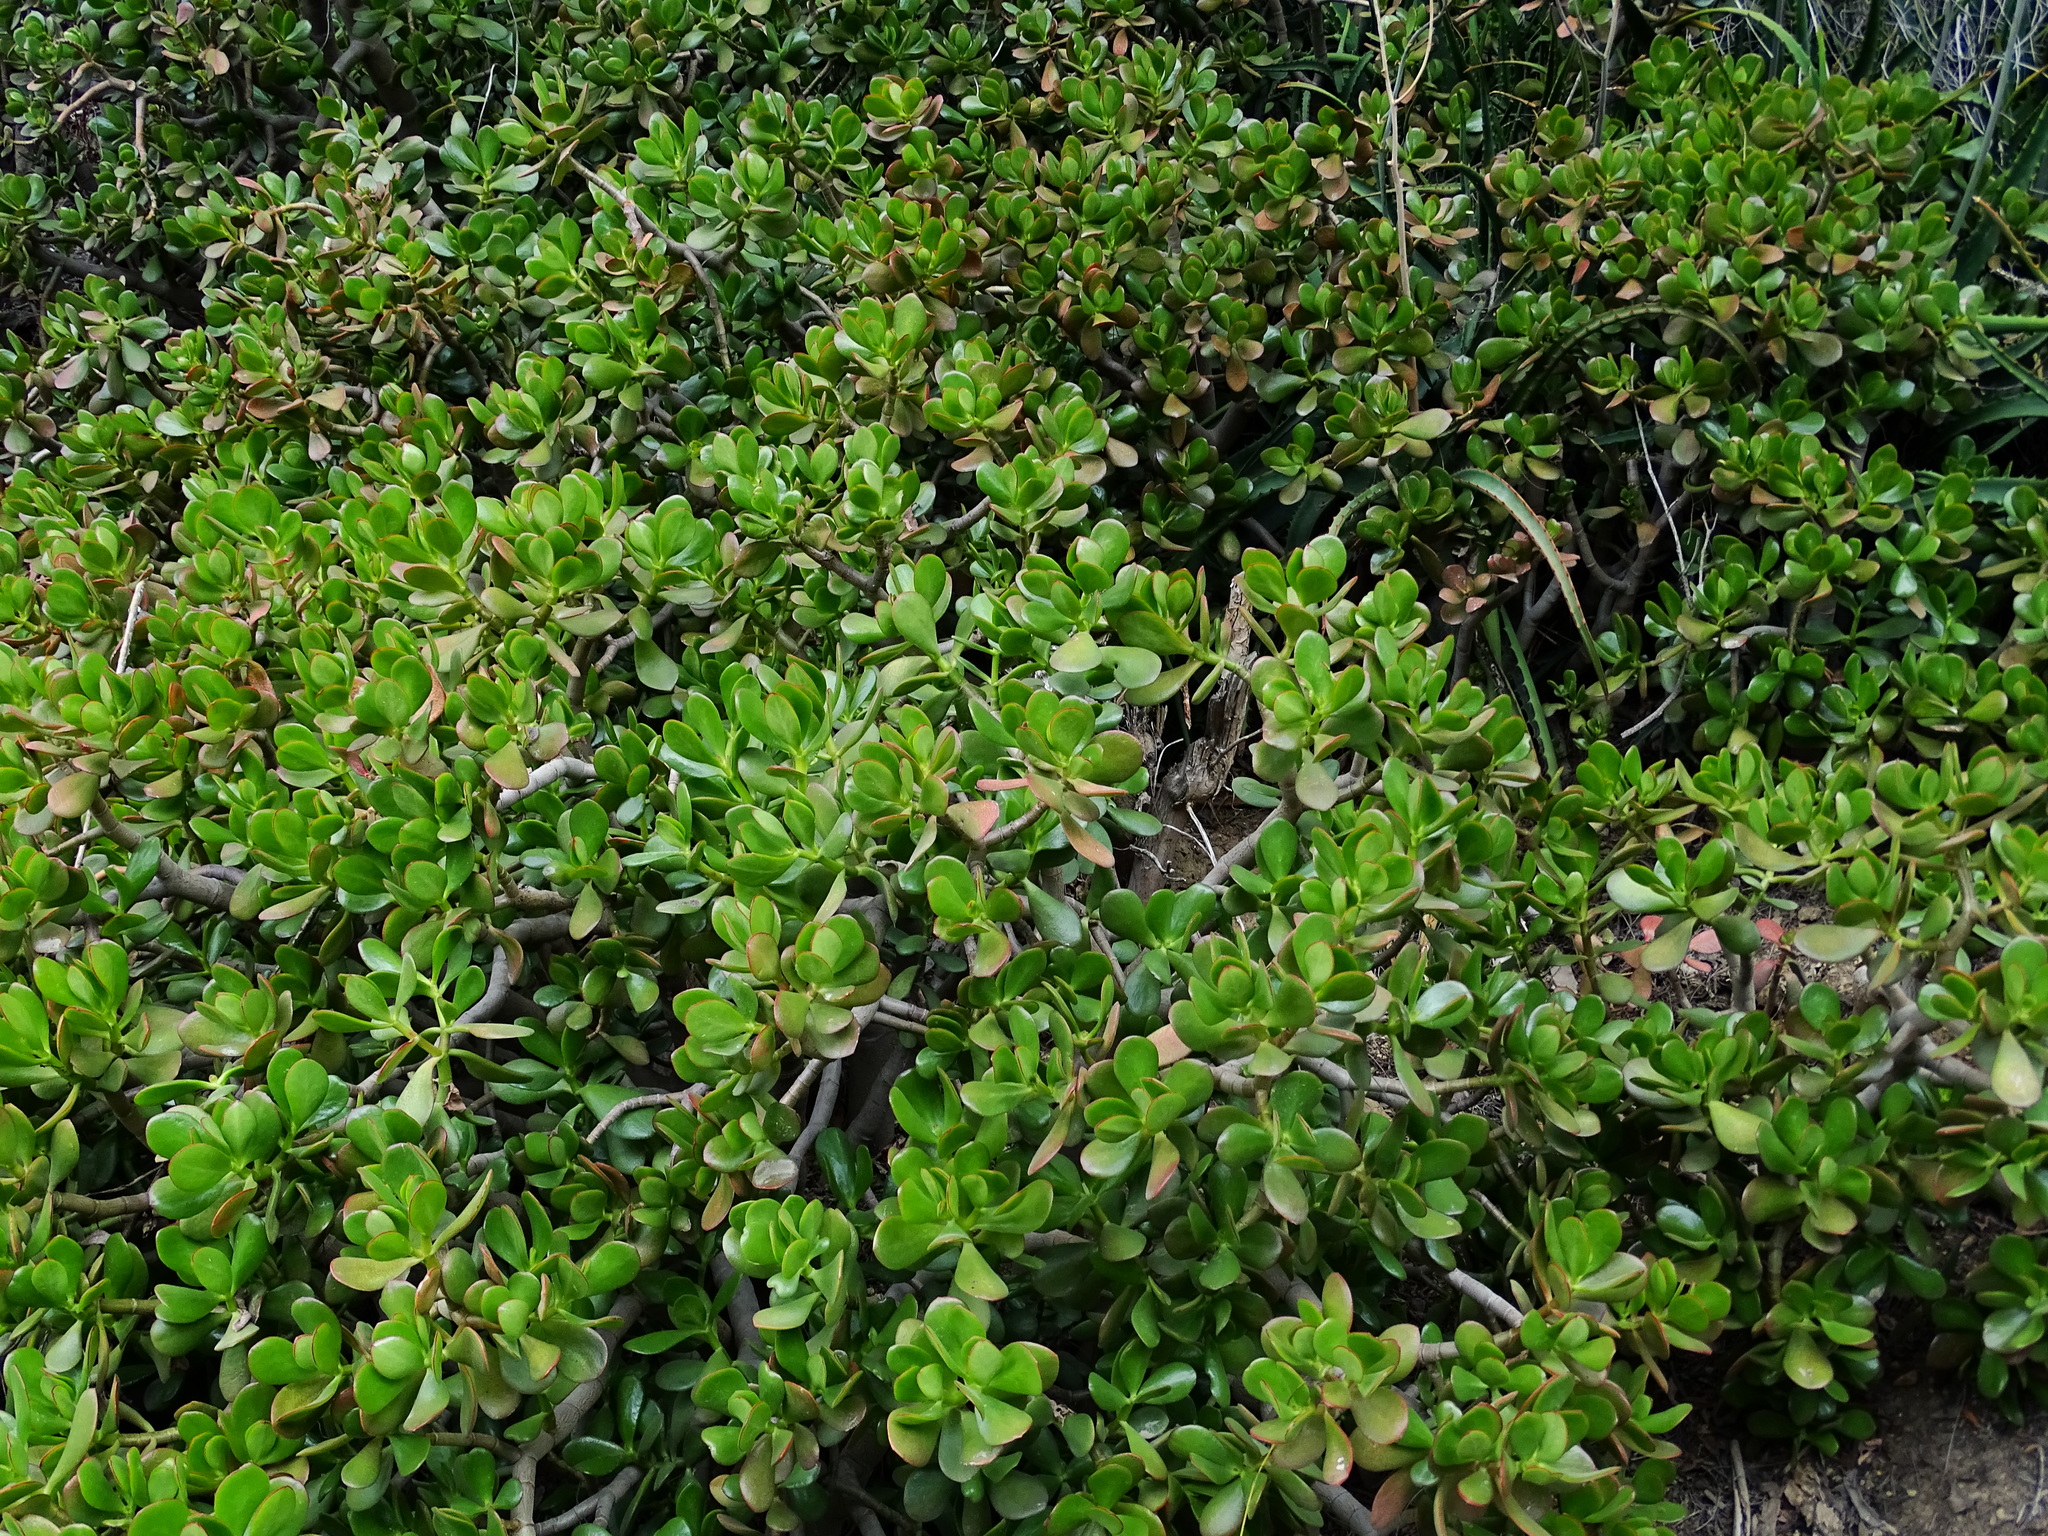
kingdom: Plantae
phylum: Tracheophyta
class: Magnoliopsida
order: Saxifragales
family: Crassulaceae
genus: Crassula
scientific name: Crassula ovata
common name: Jade plant
